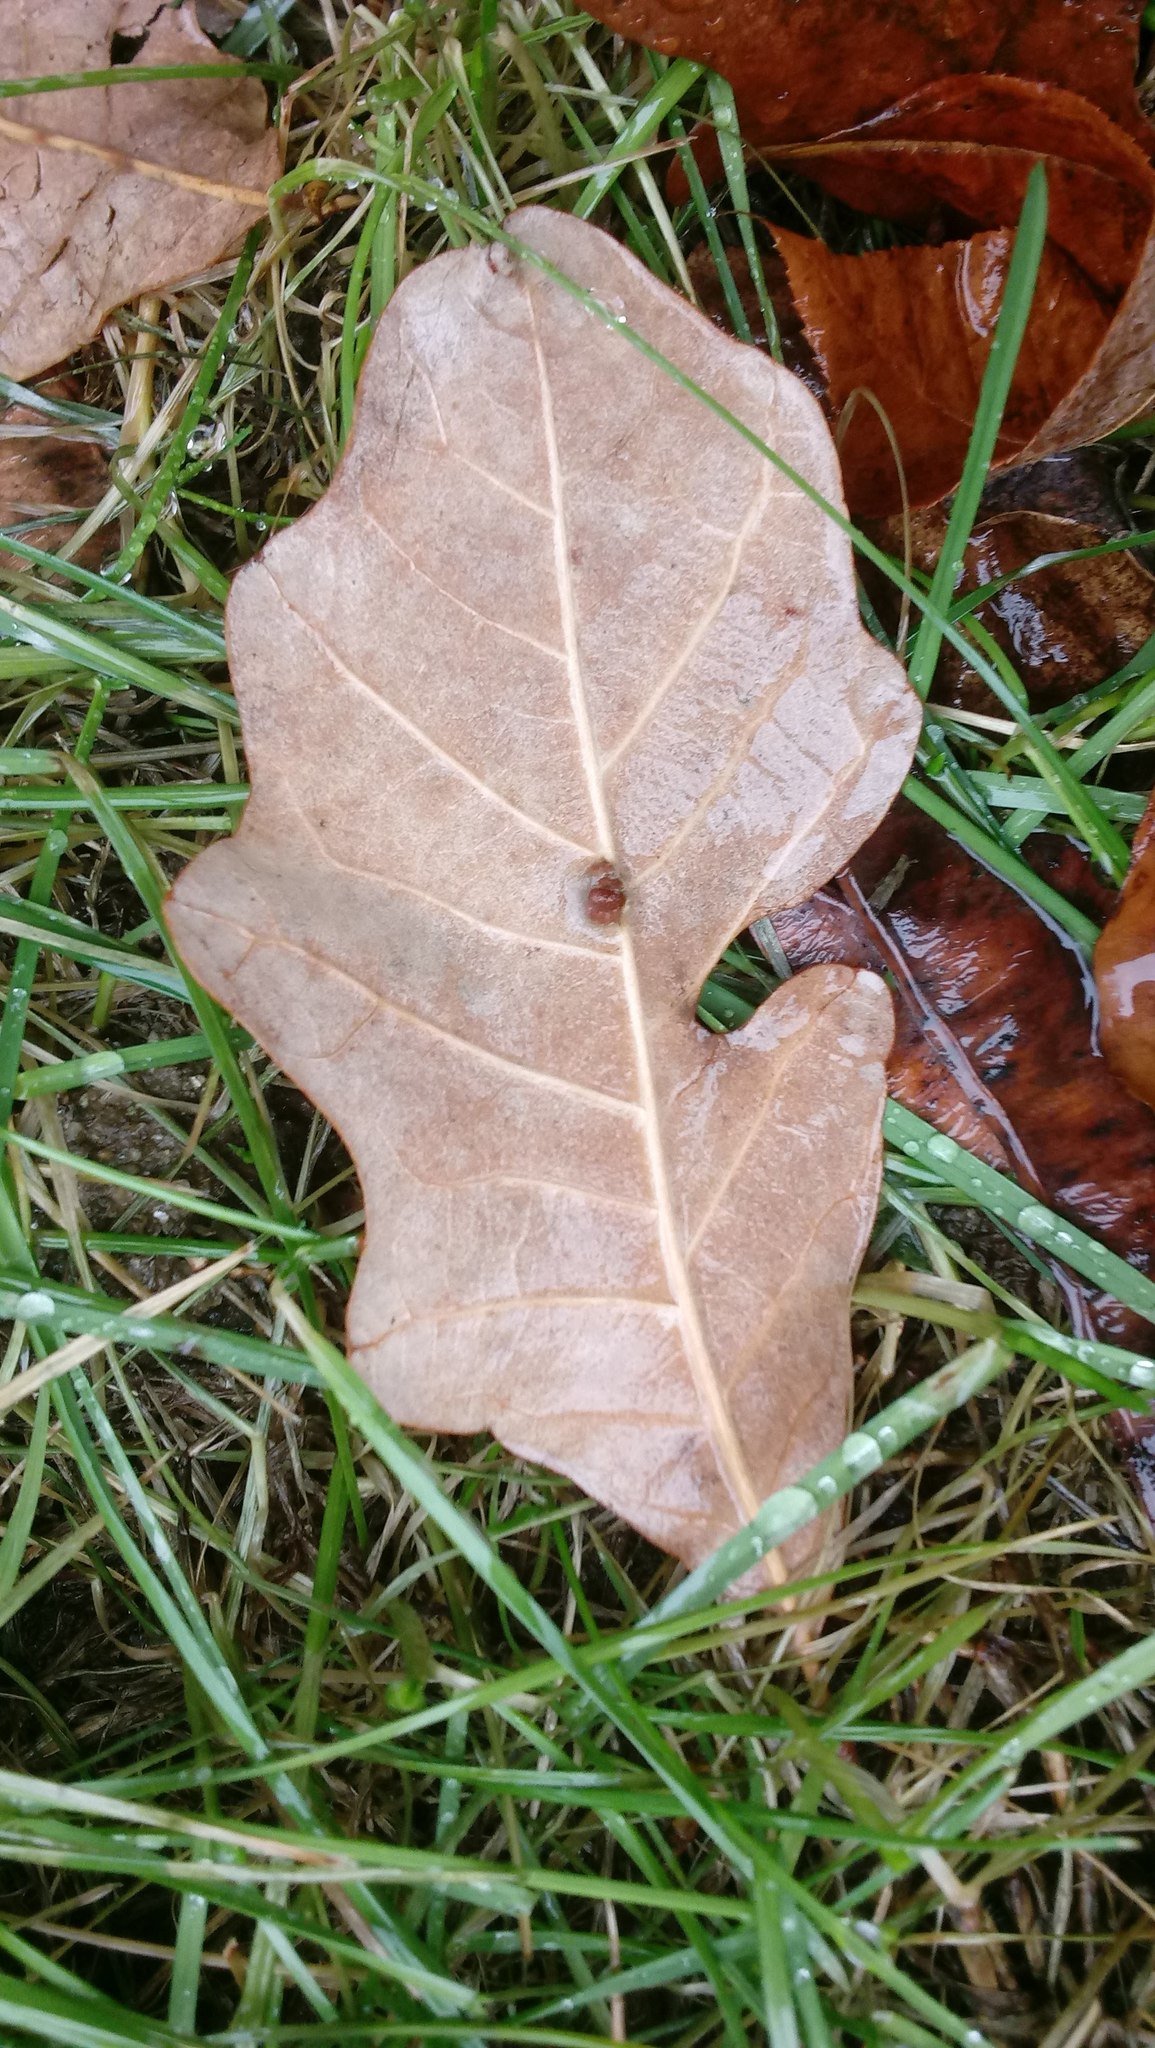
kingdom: Animalia
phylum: Arthropoda
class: Insecta
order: Hymenoptera
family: Cynipidae
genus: Andricus
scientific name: Andricus Druon ignotum
